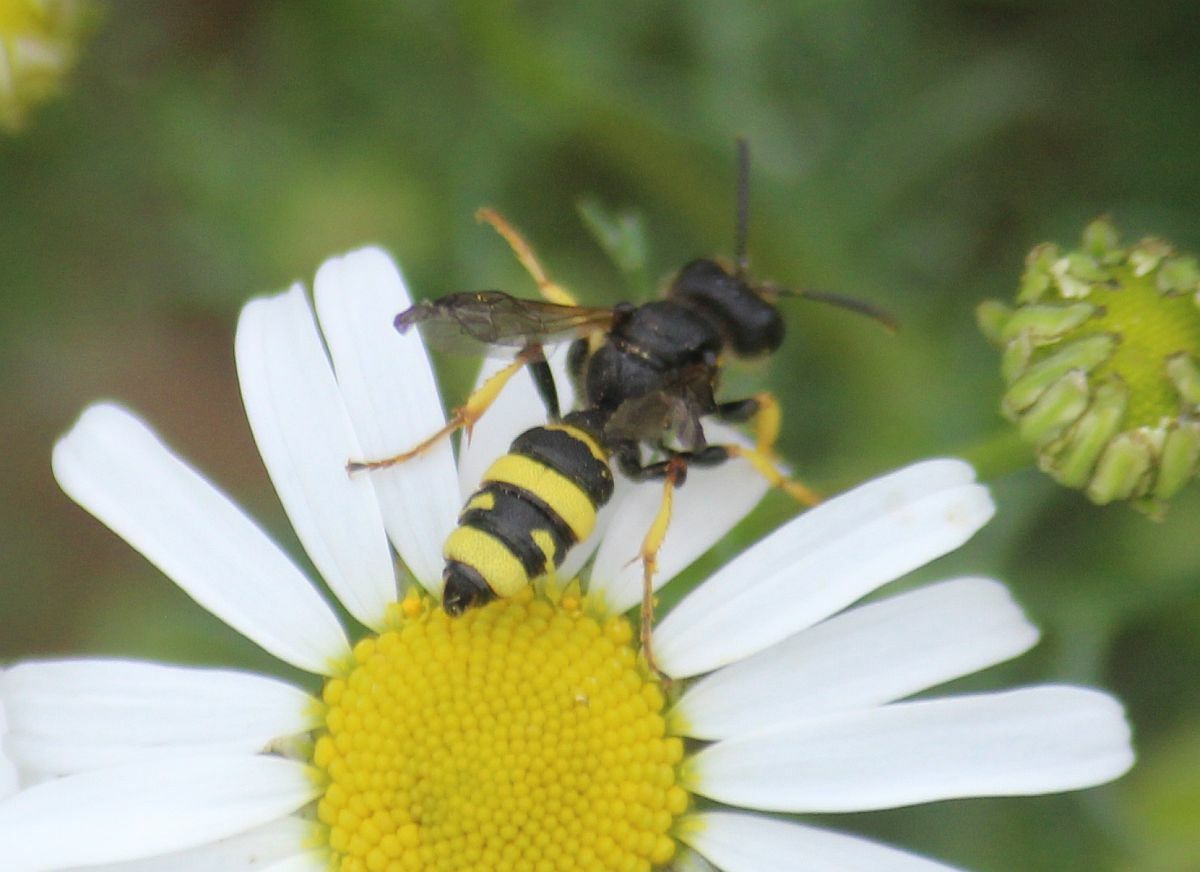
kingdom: Animalia
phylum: Arthropoda
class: Insecta
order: Hymenoptera
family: Crabronidae
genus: Cerceris
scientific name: Cerceris rybyensis
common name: Ornate tailed digger wasp
